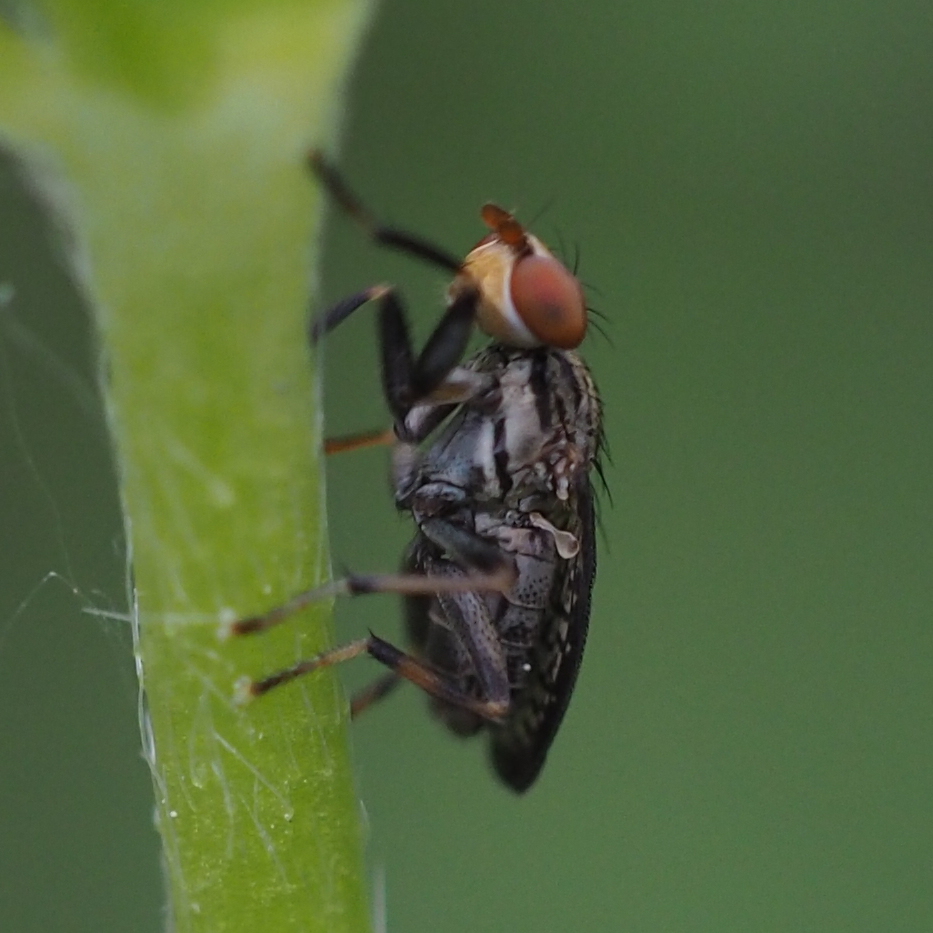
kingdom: Animalia
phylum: Arthropoda
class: Insecta
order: Diptera
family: Sciomyzidae
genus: Pherbellia
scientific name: Pherbellia limbata
